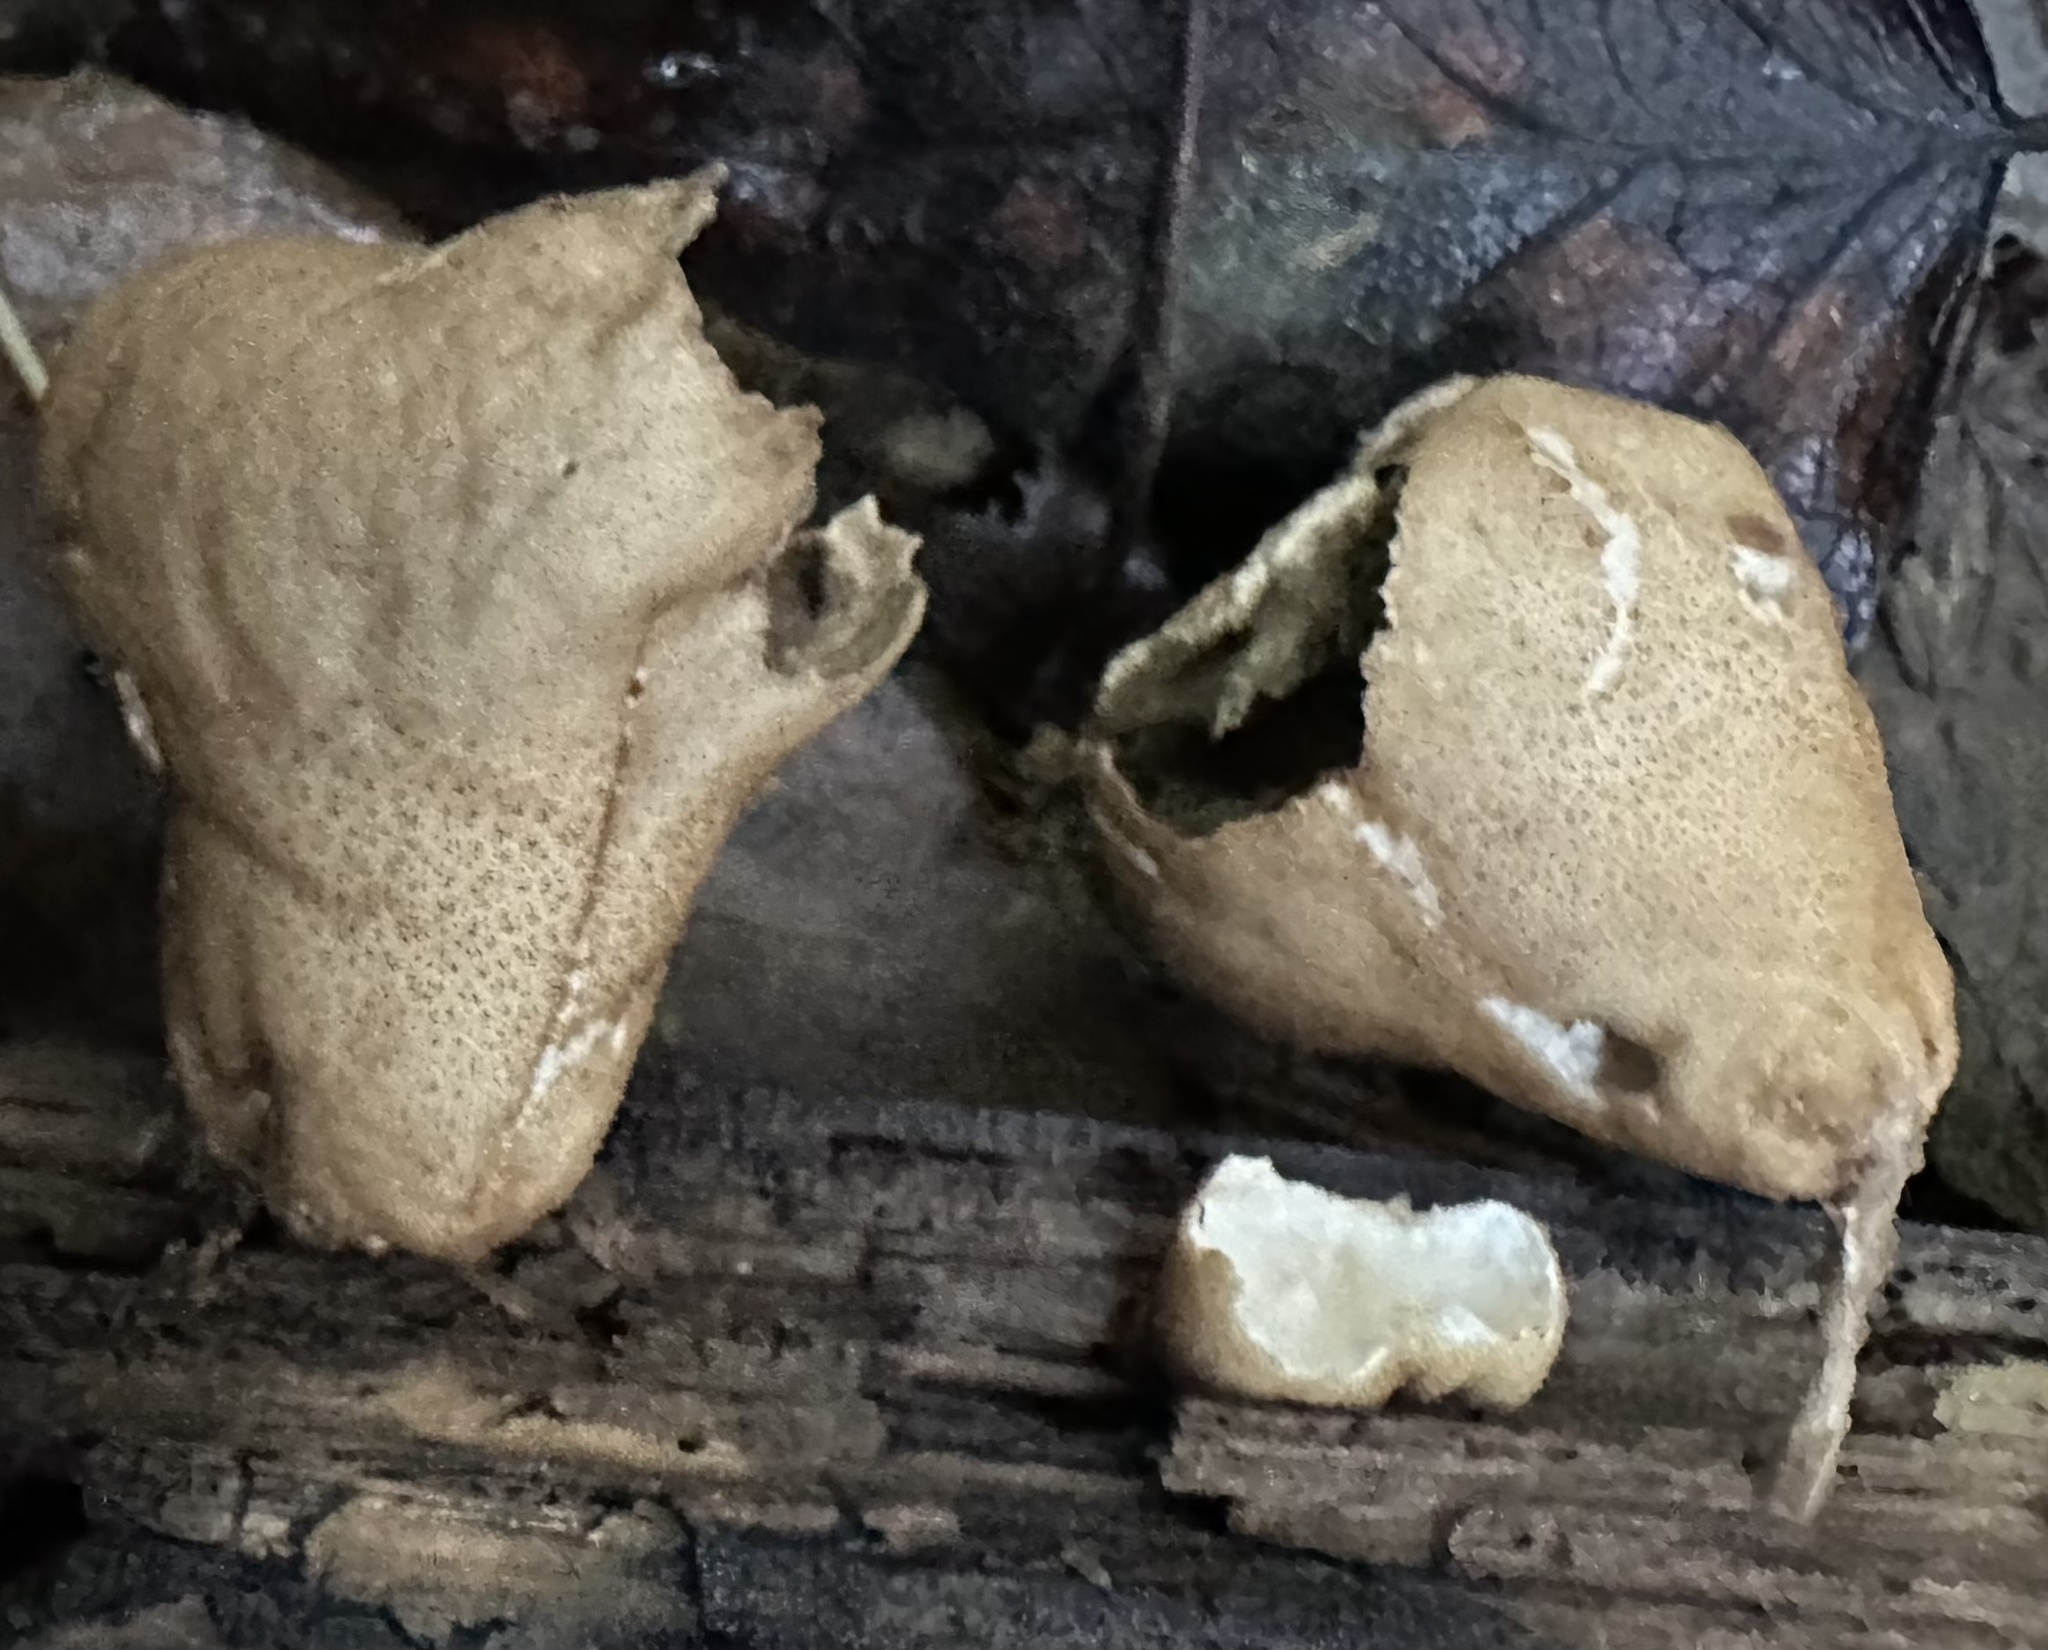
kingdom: Fungi
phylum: Basidiomycota
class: Agaricomycetes
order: Agaricales
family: Lycoperdaceae
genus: Apioperdon
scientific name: Apioperdon pyriforme
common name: Pear-shaped puffball
